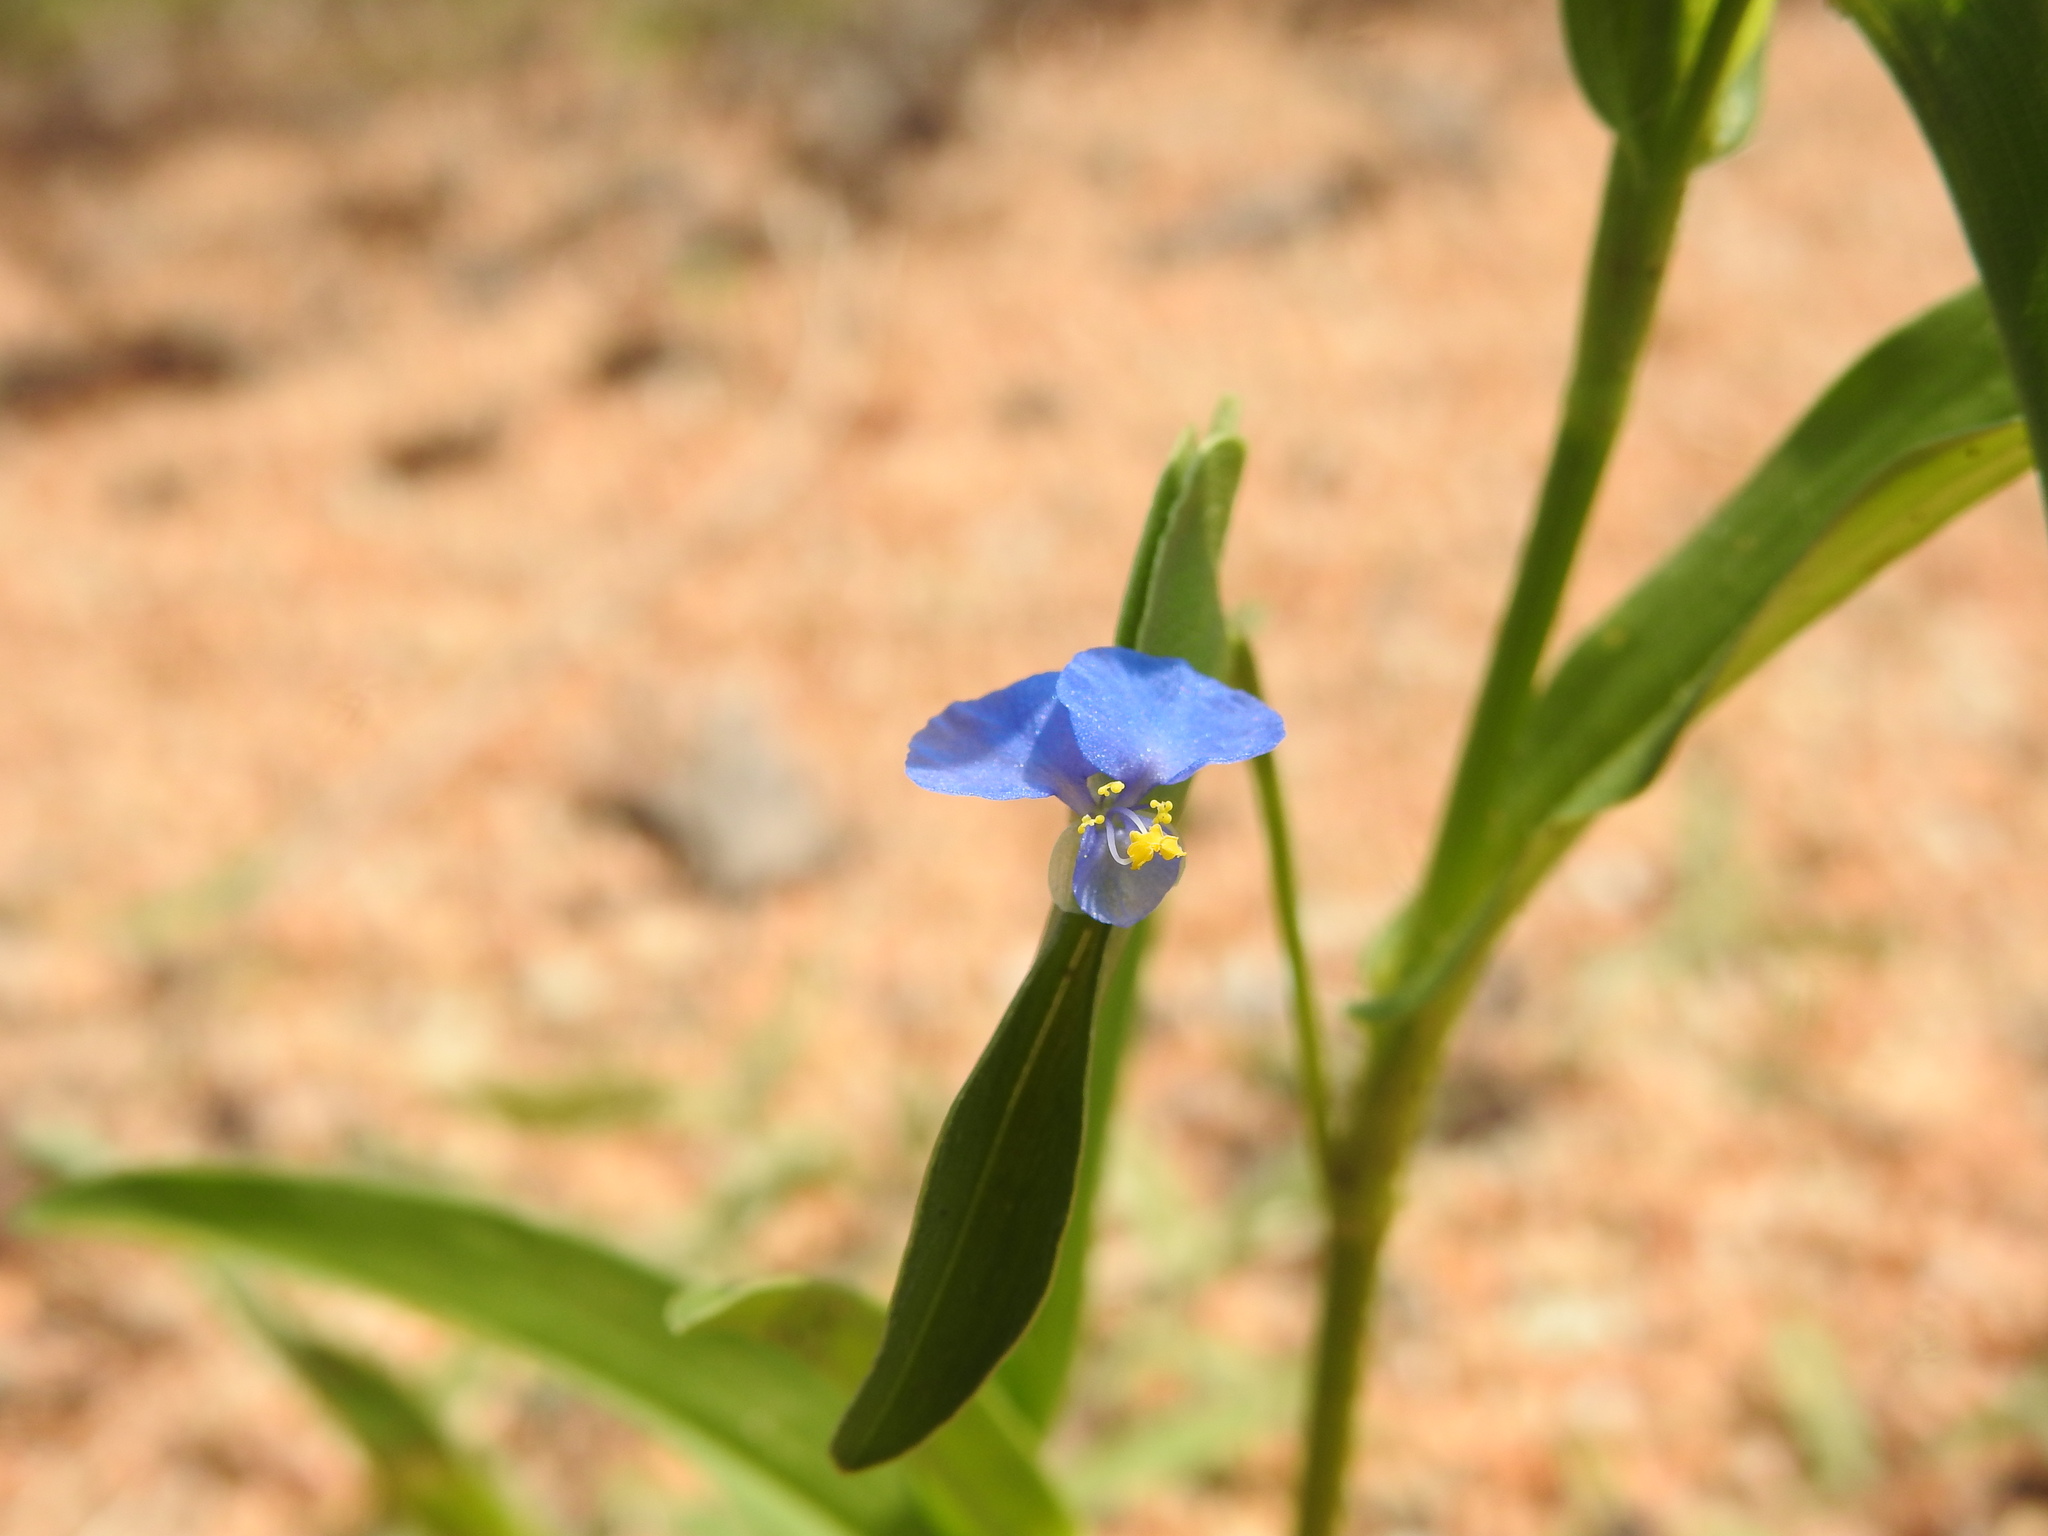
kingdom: Plantae
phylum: Tracheophyta
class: Liliopsida
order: Commelinales
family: Commelinaceae
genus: Commelina
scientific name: Commelina attenuata
